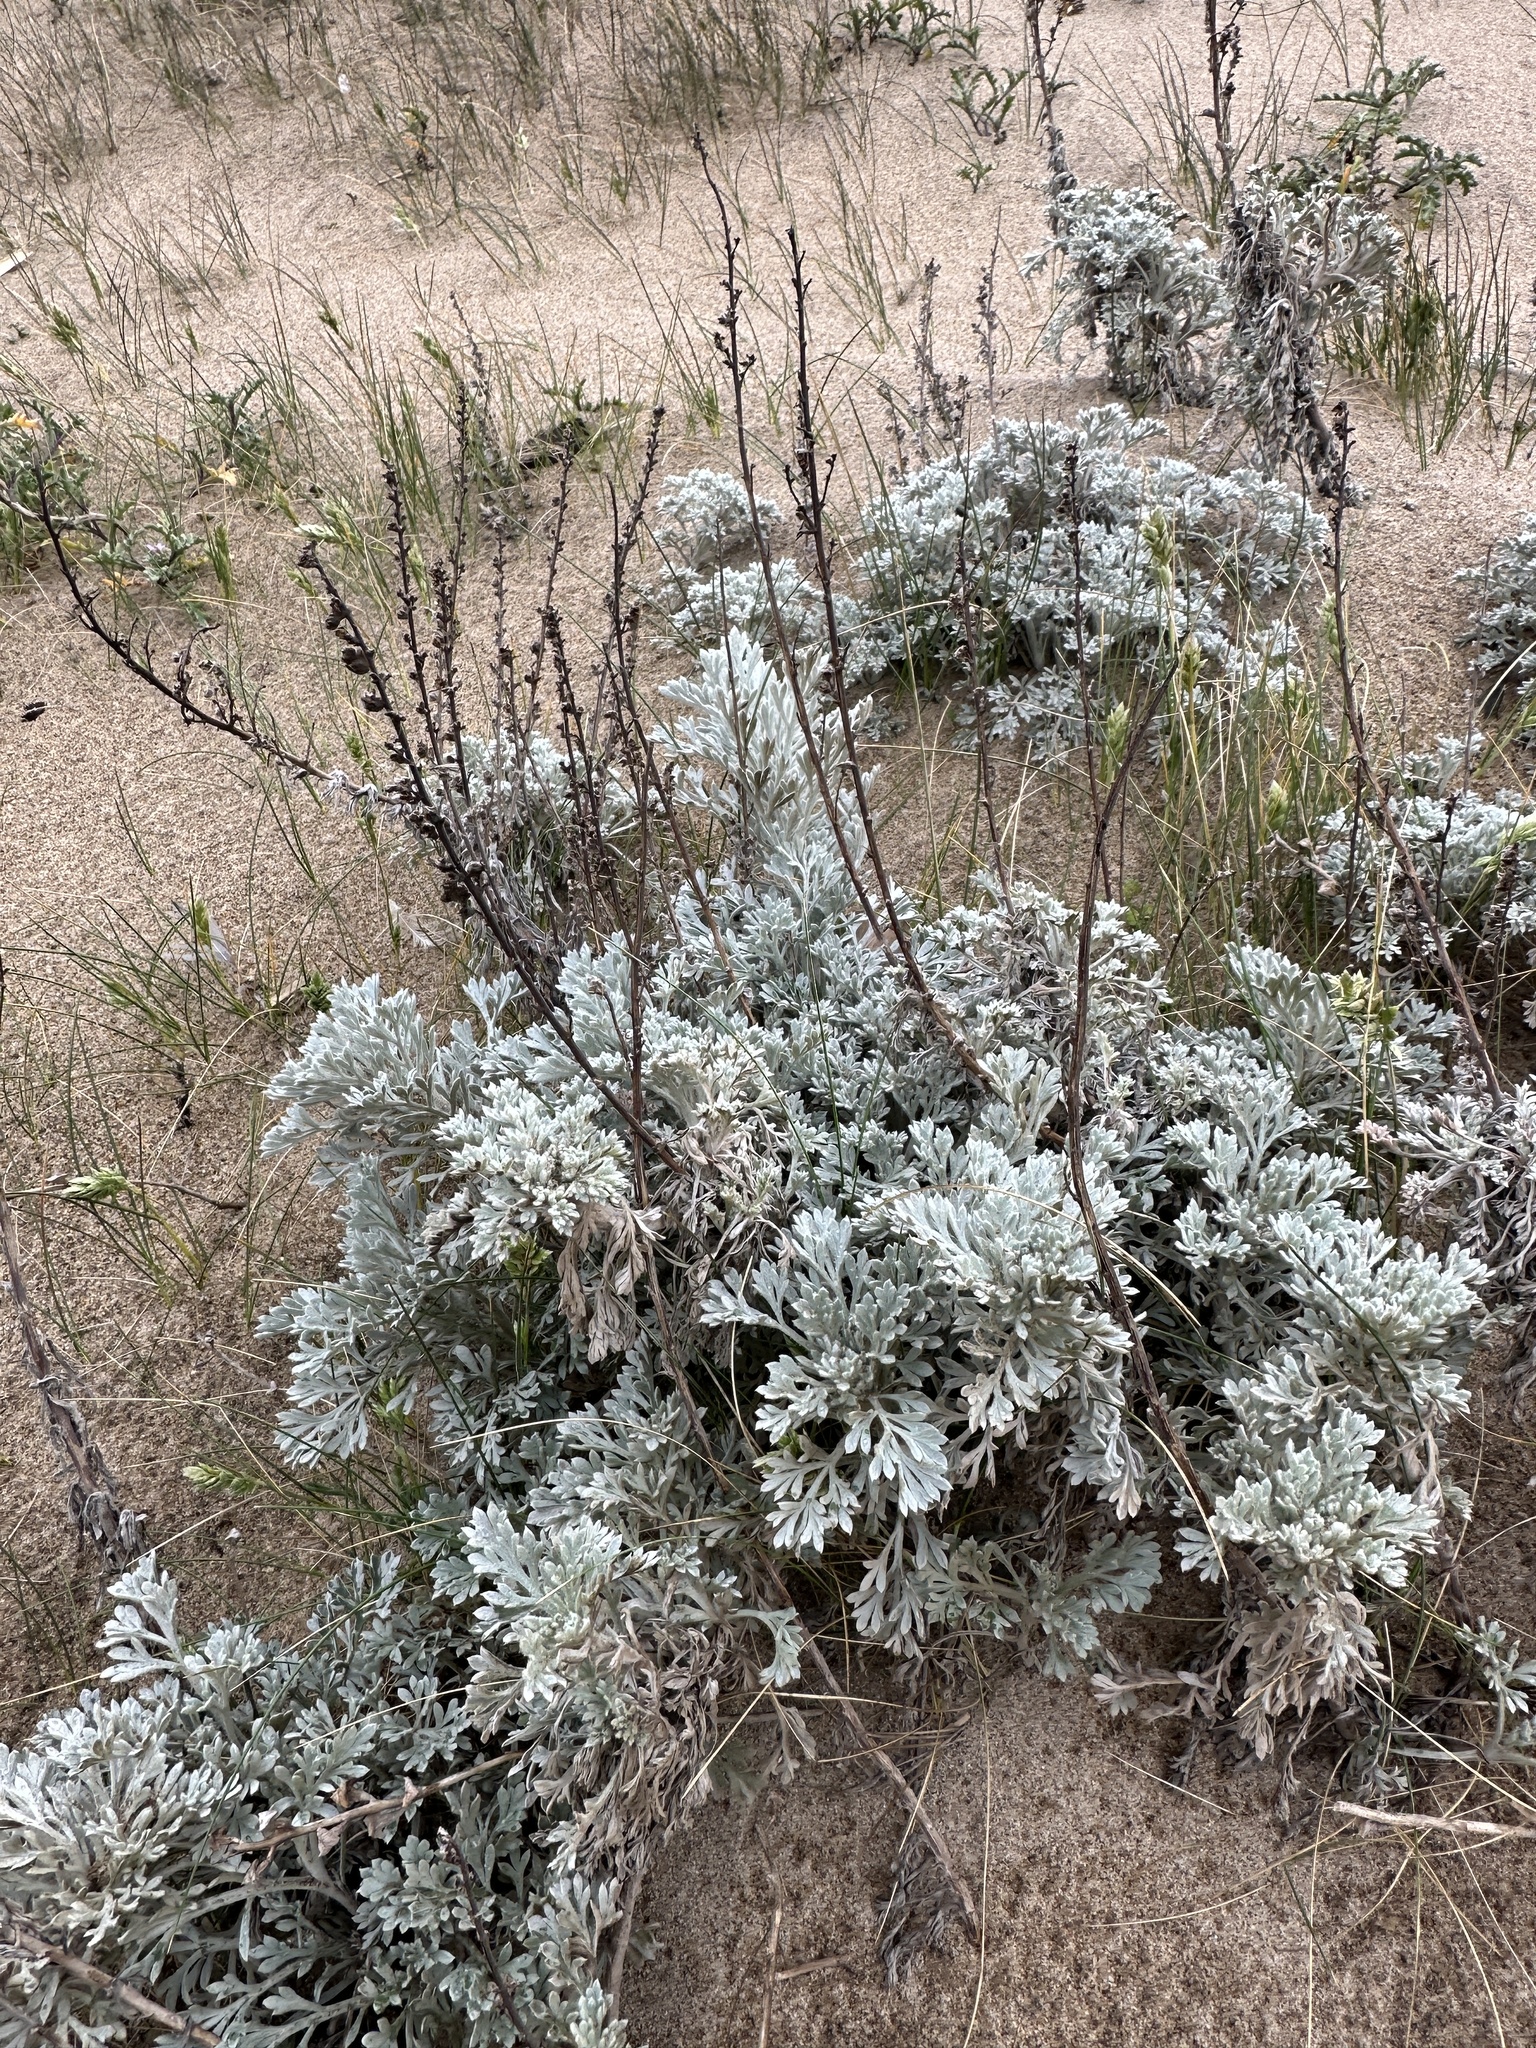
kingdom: Plantae
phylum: Tracheophyta
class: Magnoliopsida
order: Asterales
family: Asteraceae
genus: Artemisia
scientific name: Artemisia pycnocephala
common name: Coastal sagewort
